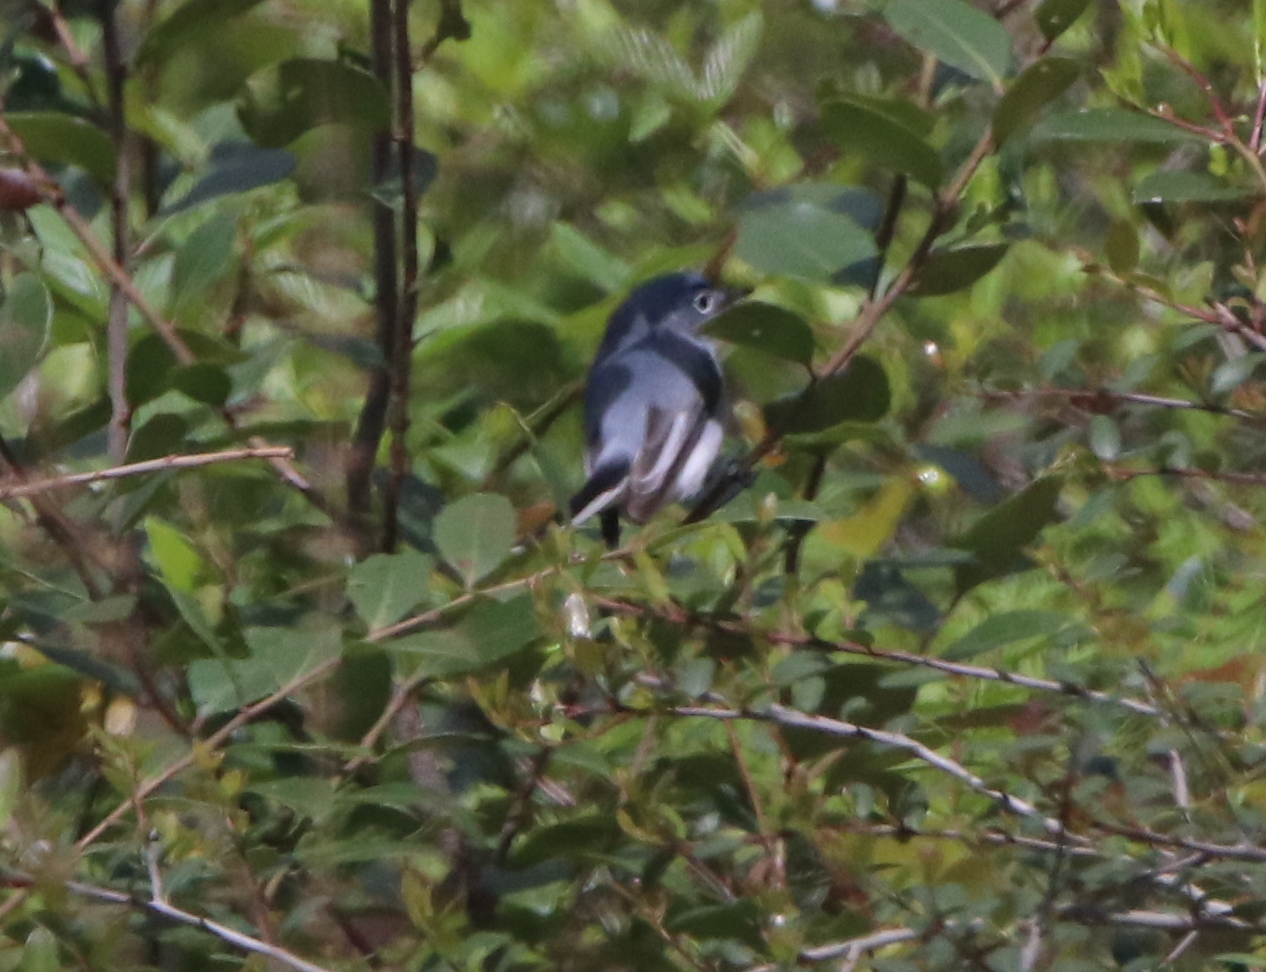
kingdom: Animalia
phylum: Chordata
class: Aves
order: Passeriformes
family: Polioptilidae
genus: Polioptila
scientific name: Polioptila caerulea
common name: Blue-gray gnatcatcher
